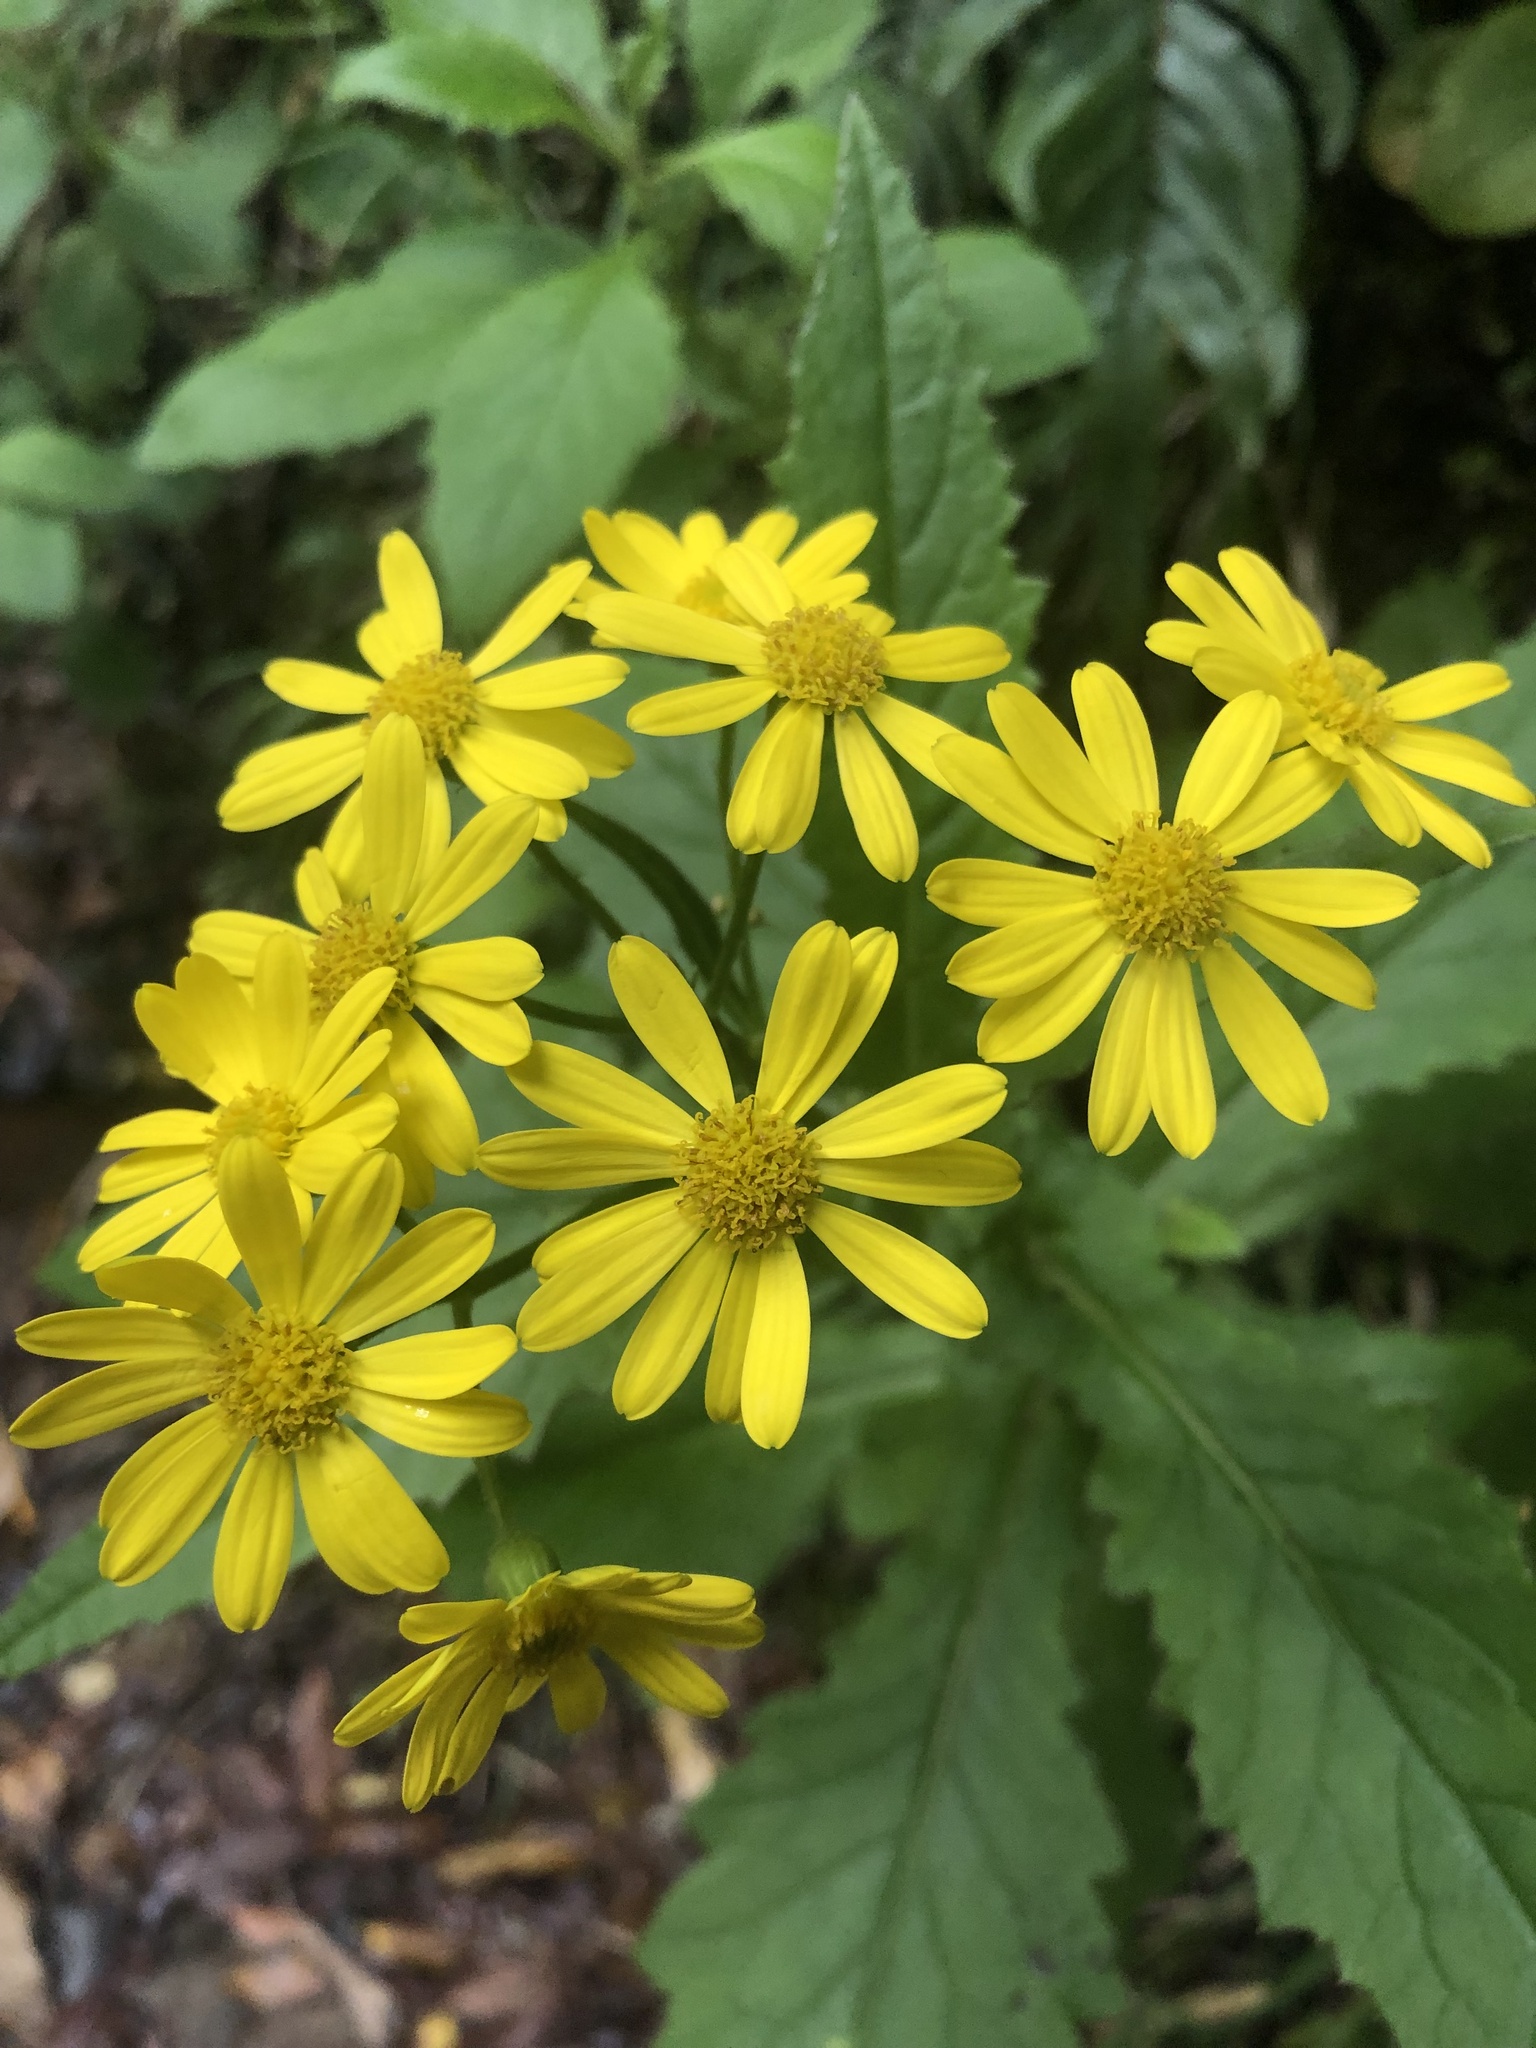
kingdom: Plantae
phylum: Tracheophyta
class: Magnoliopsida
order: Asterales
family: Asteraceae
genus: Senecio
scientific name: Senecio rufiglandulosus
